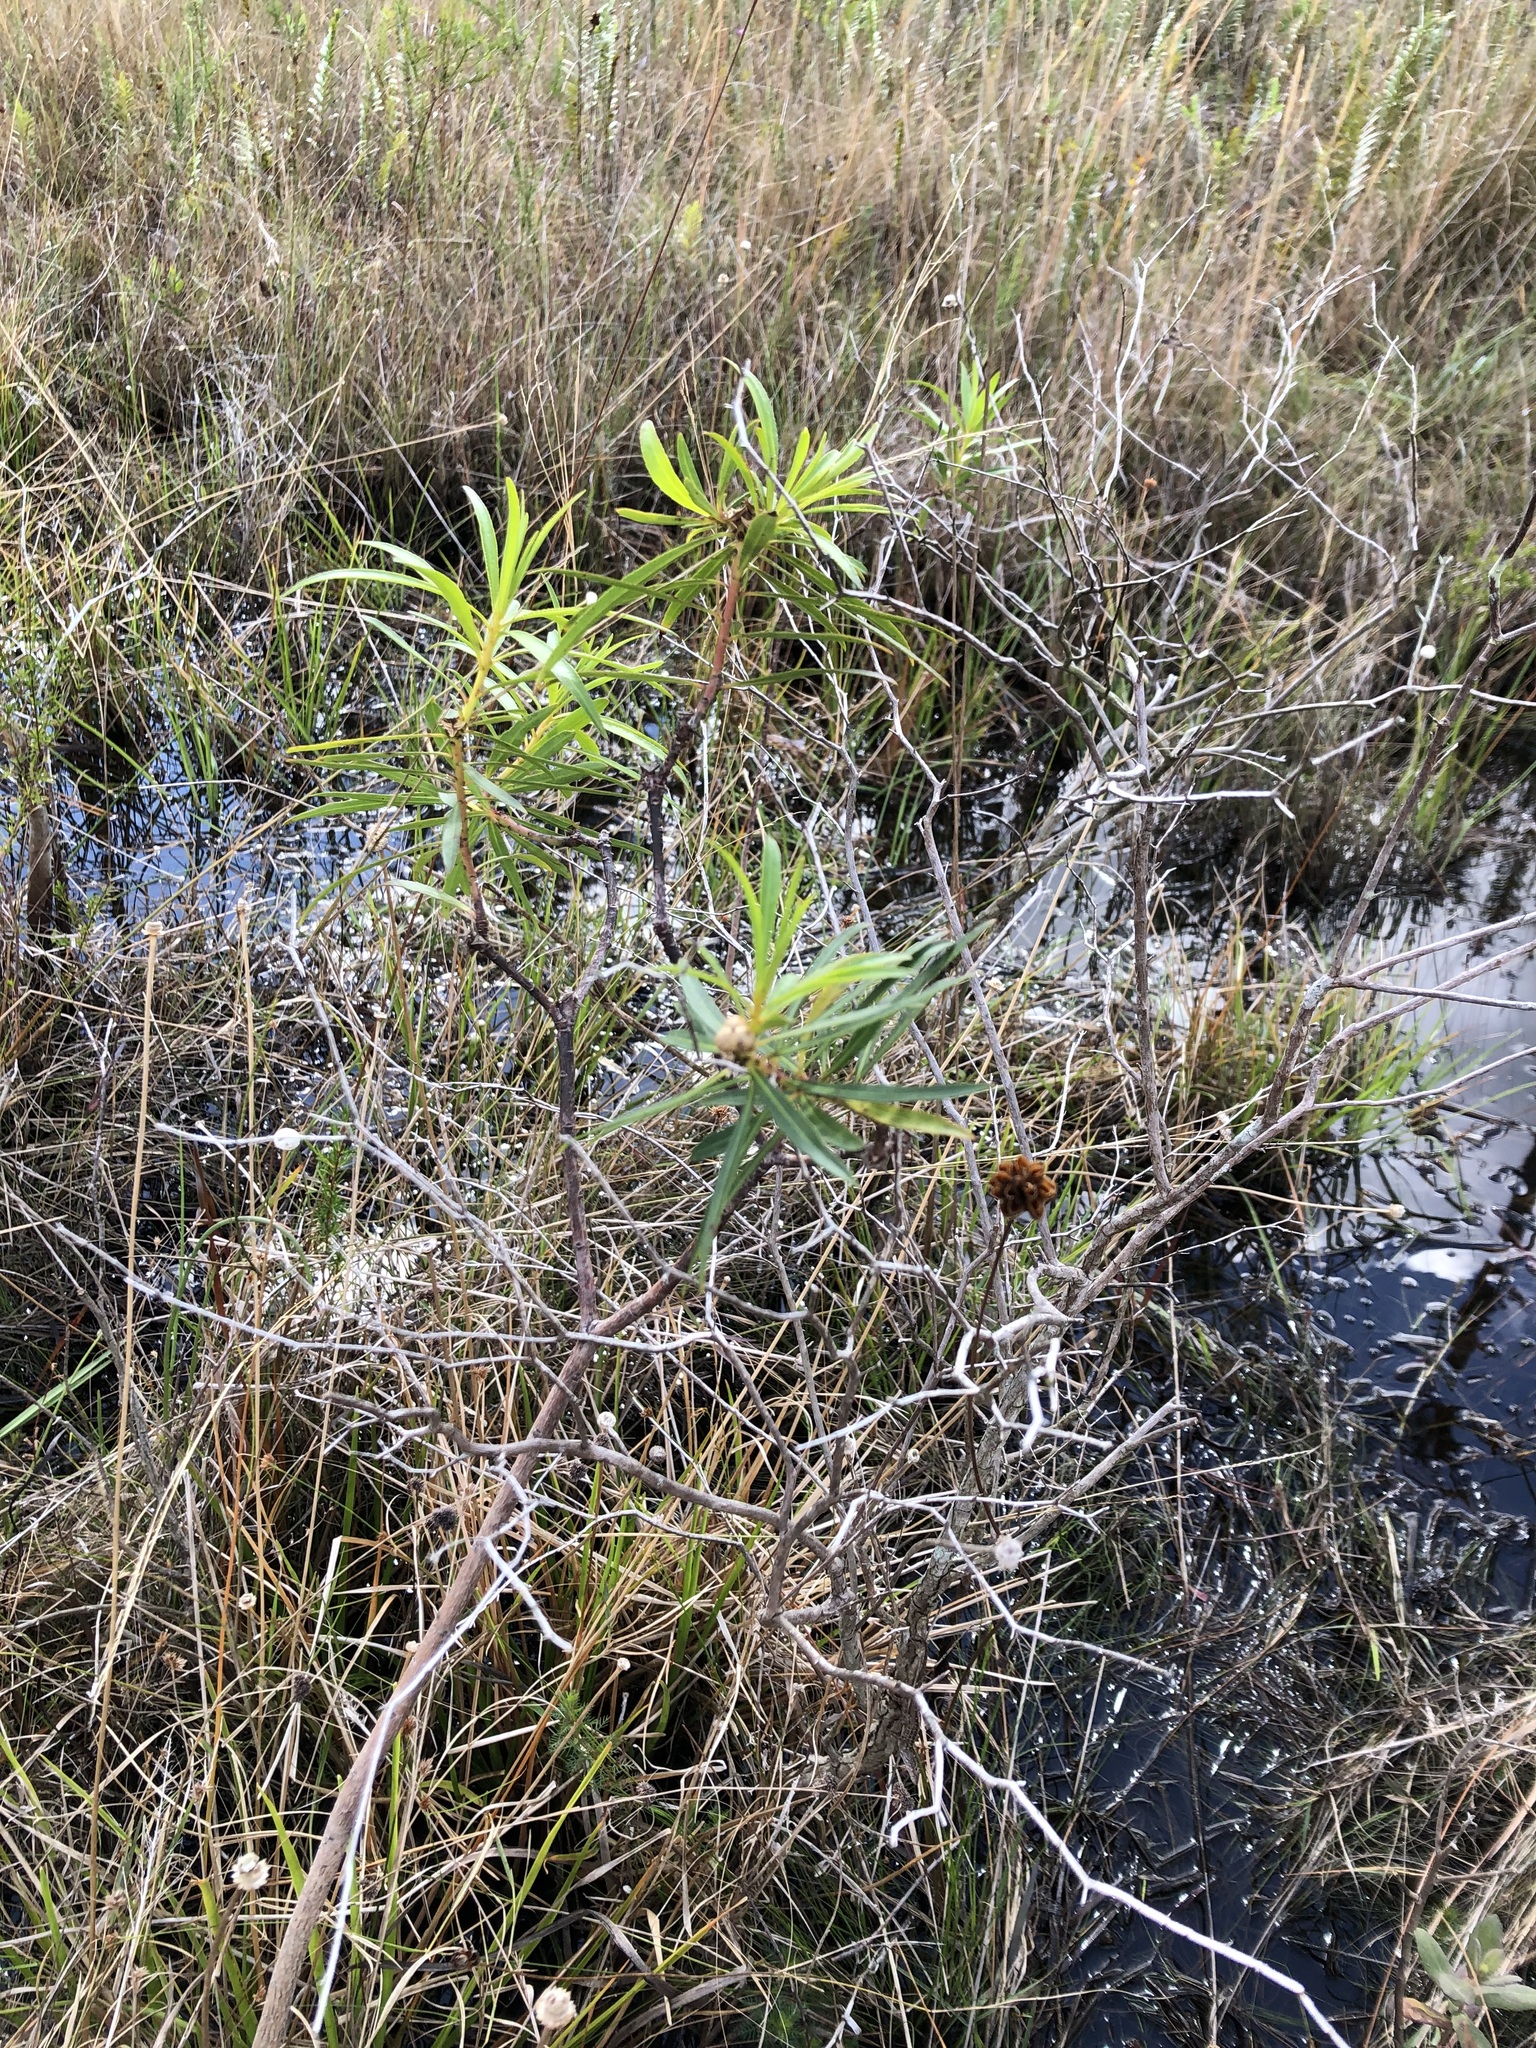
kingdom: Plantae
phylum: Tracheophyta
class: Magnoliopsida
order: Malpighiales
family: Euphorbiaceae
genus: Stillingia
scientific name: Stillingia aquatica
